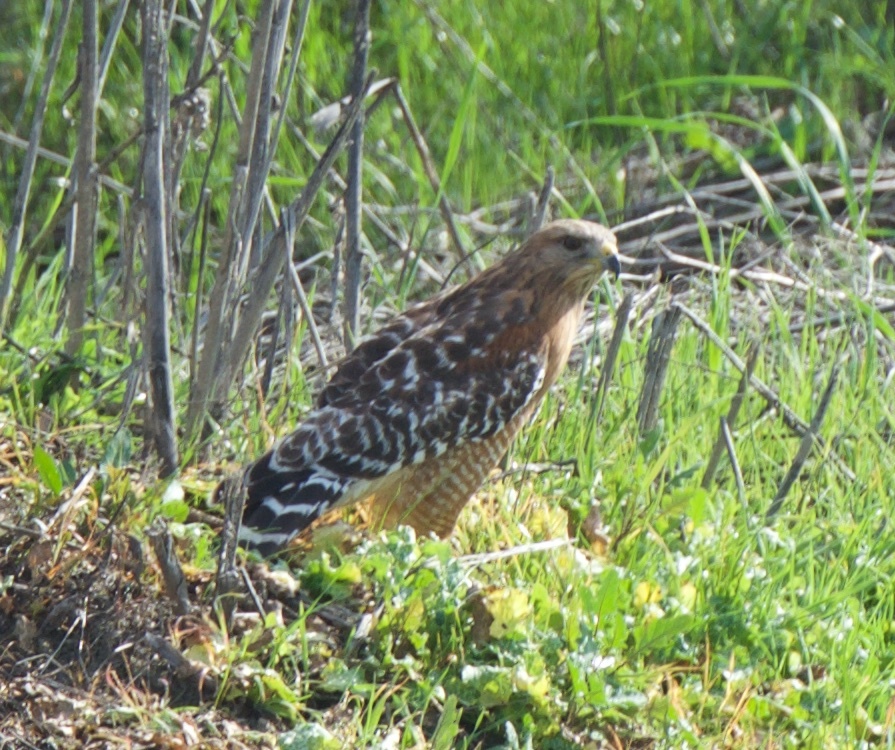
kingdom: Animalia
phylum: Chordata
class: Aves
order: Accipitriformes
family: Accipitridae
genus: Buteo
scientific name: Buteo lineatus
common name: Red-shouldered hawk
